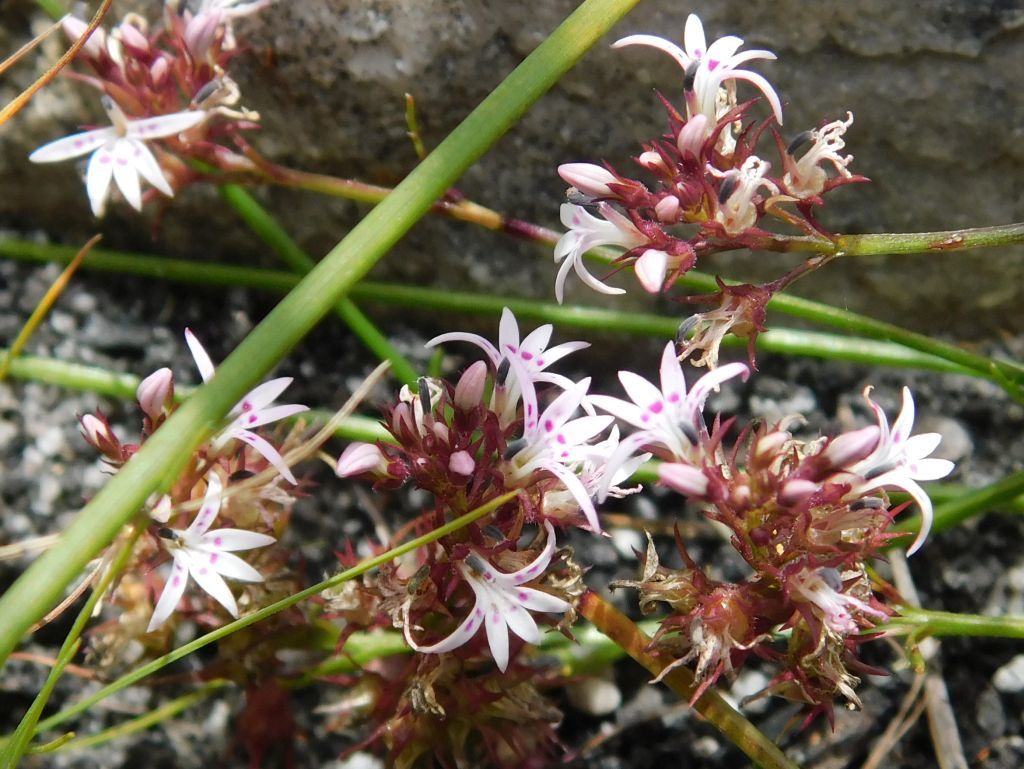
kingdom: Plantae
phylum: Tracheophyta
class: Magnoliopsida
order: Asterales
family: Campanulaceae
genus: Lobelia
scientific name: Lobelia jasionoides
